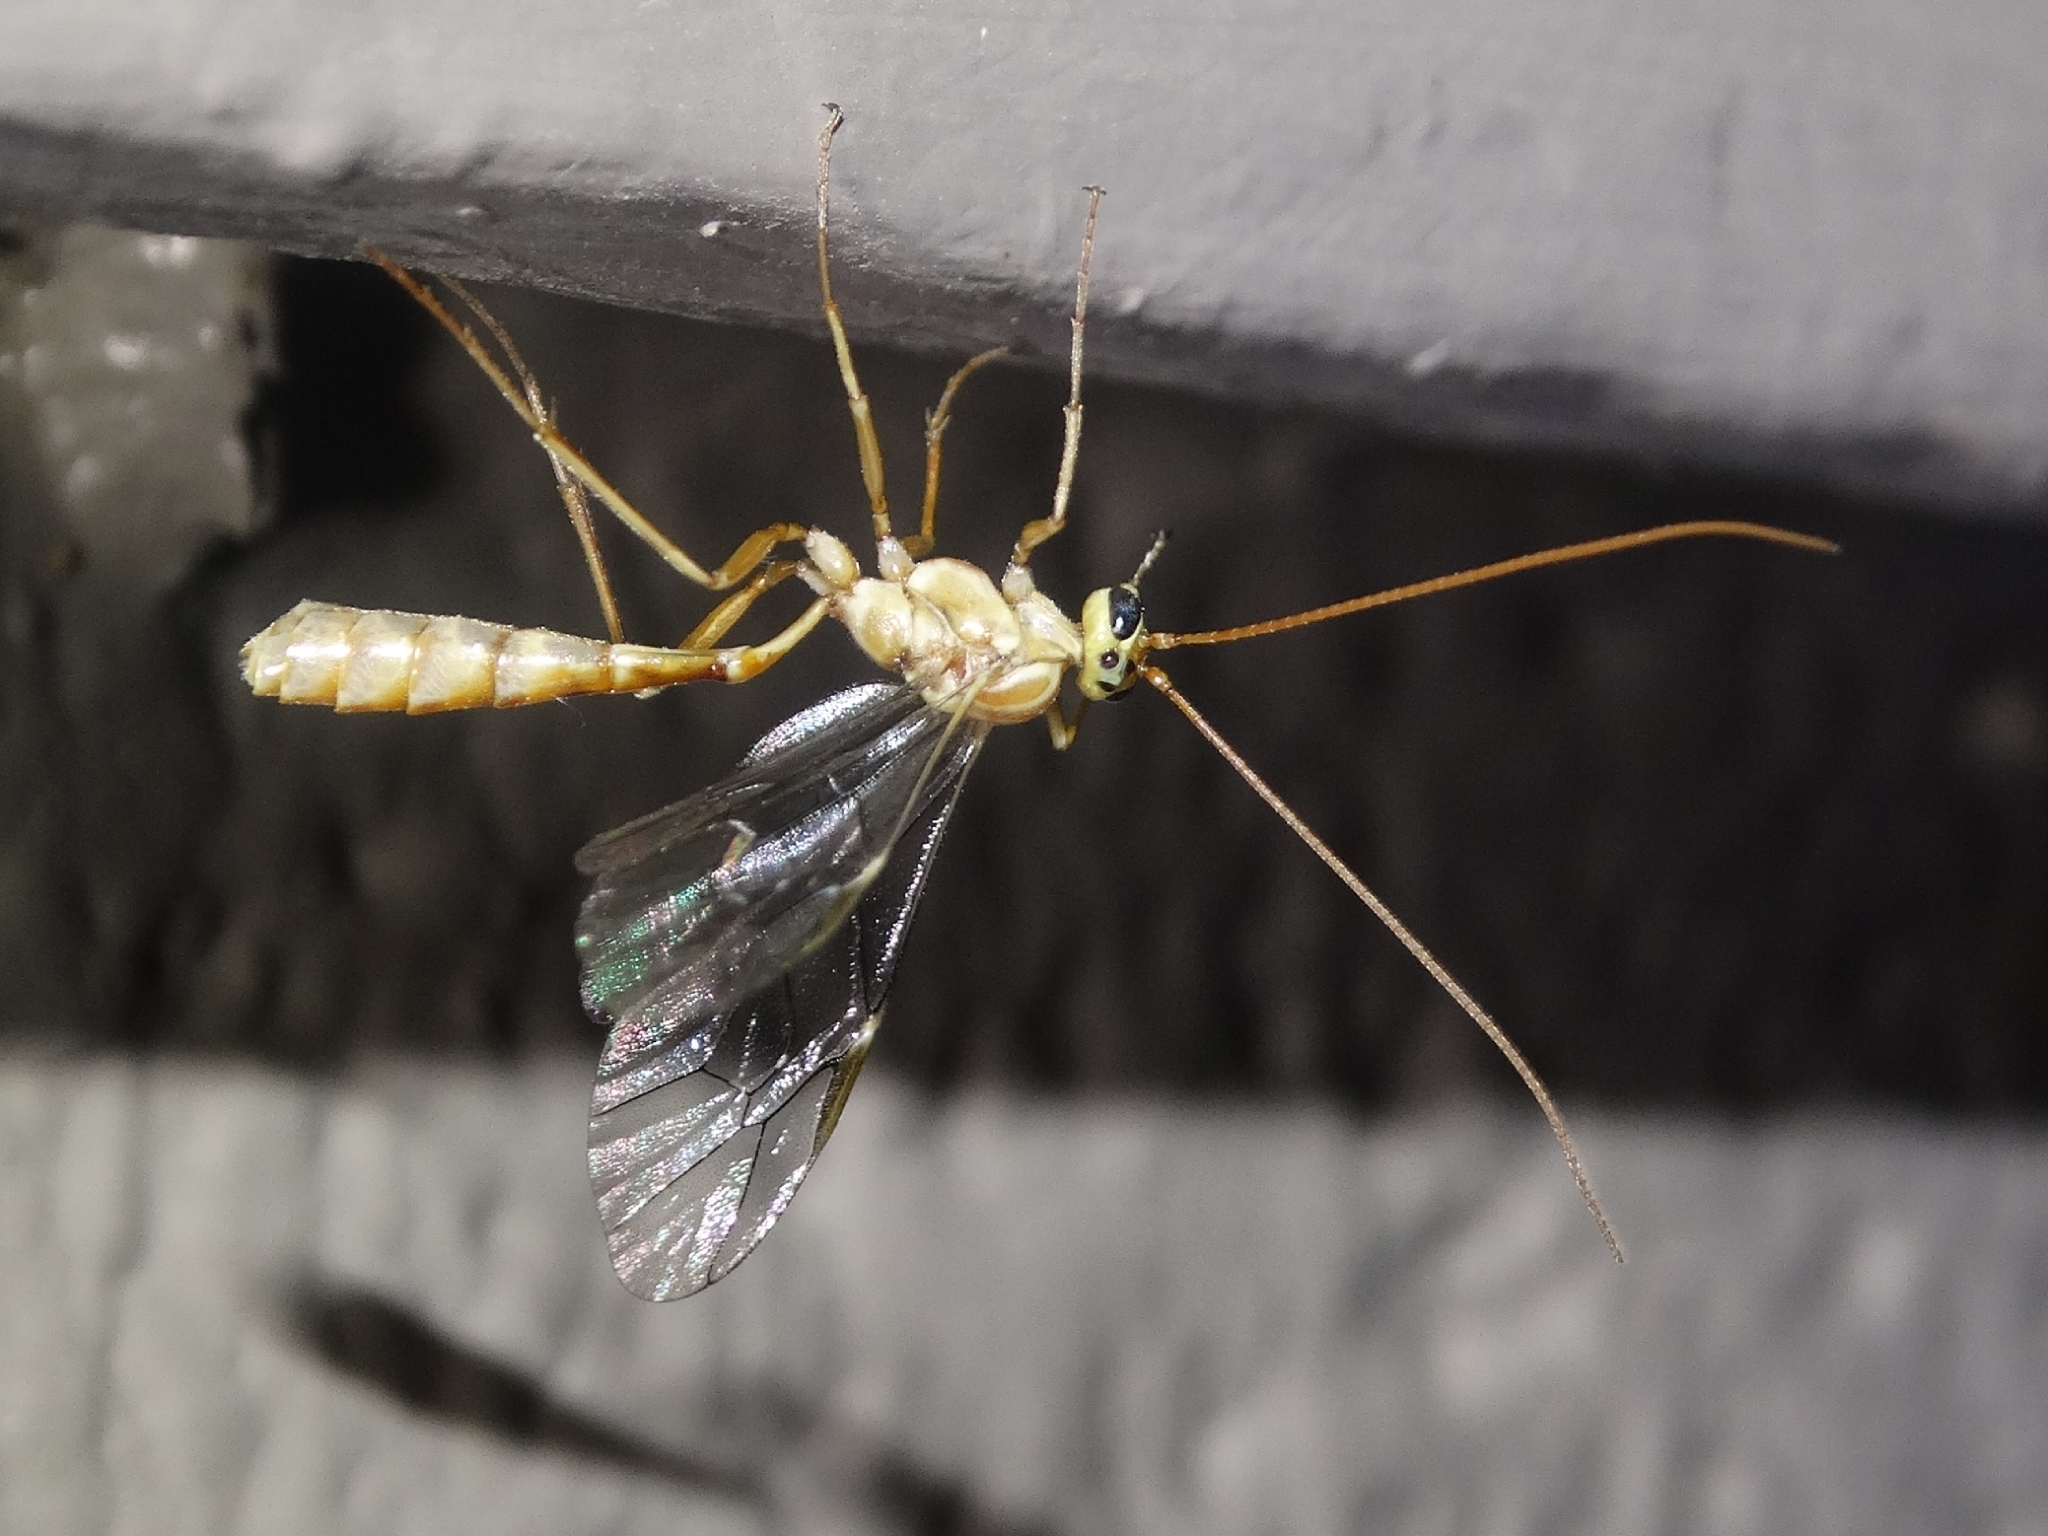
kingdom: Animalia
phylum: Arthropoda
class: Insecta
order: Hymenoptera
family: Ichneumonidae
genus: Eremotylus
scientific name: Eremotylus
